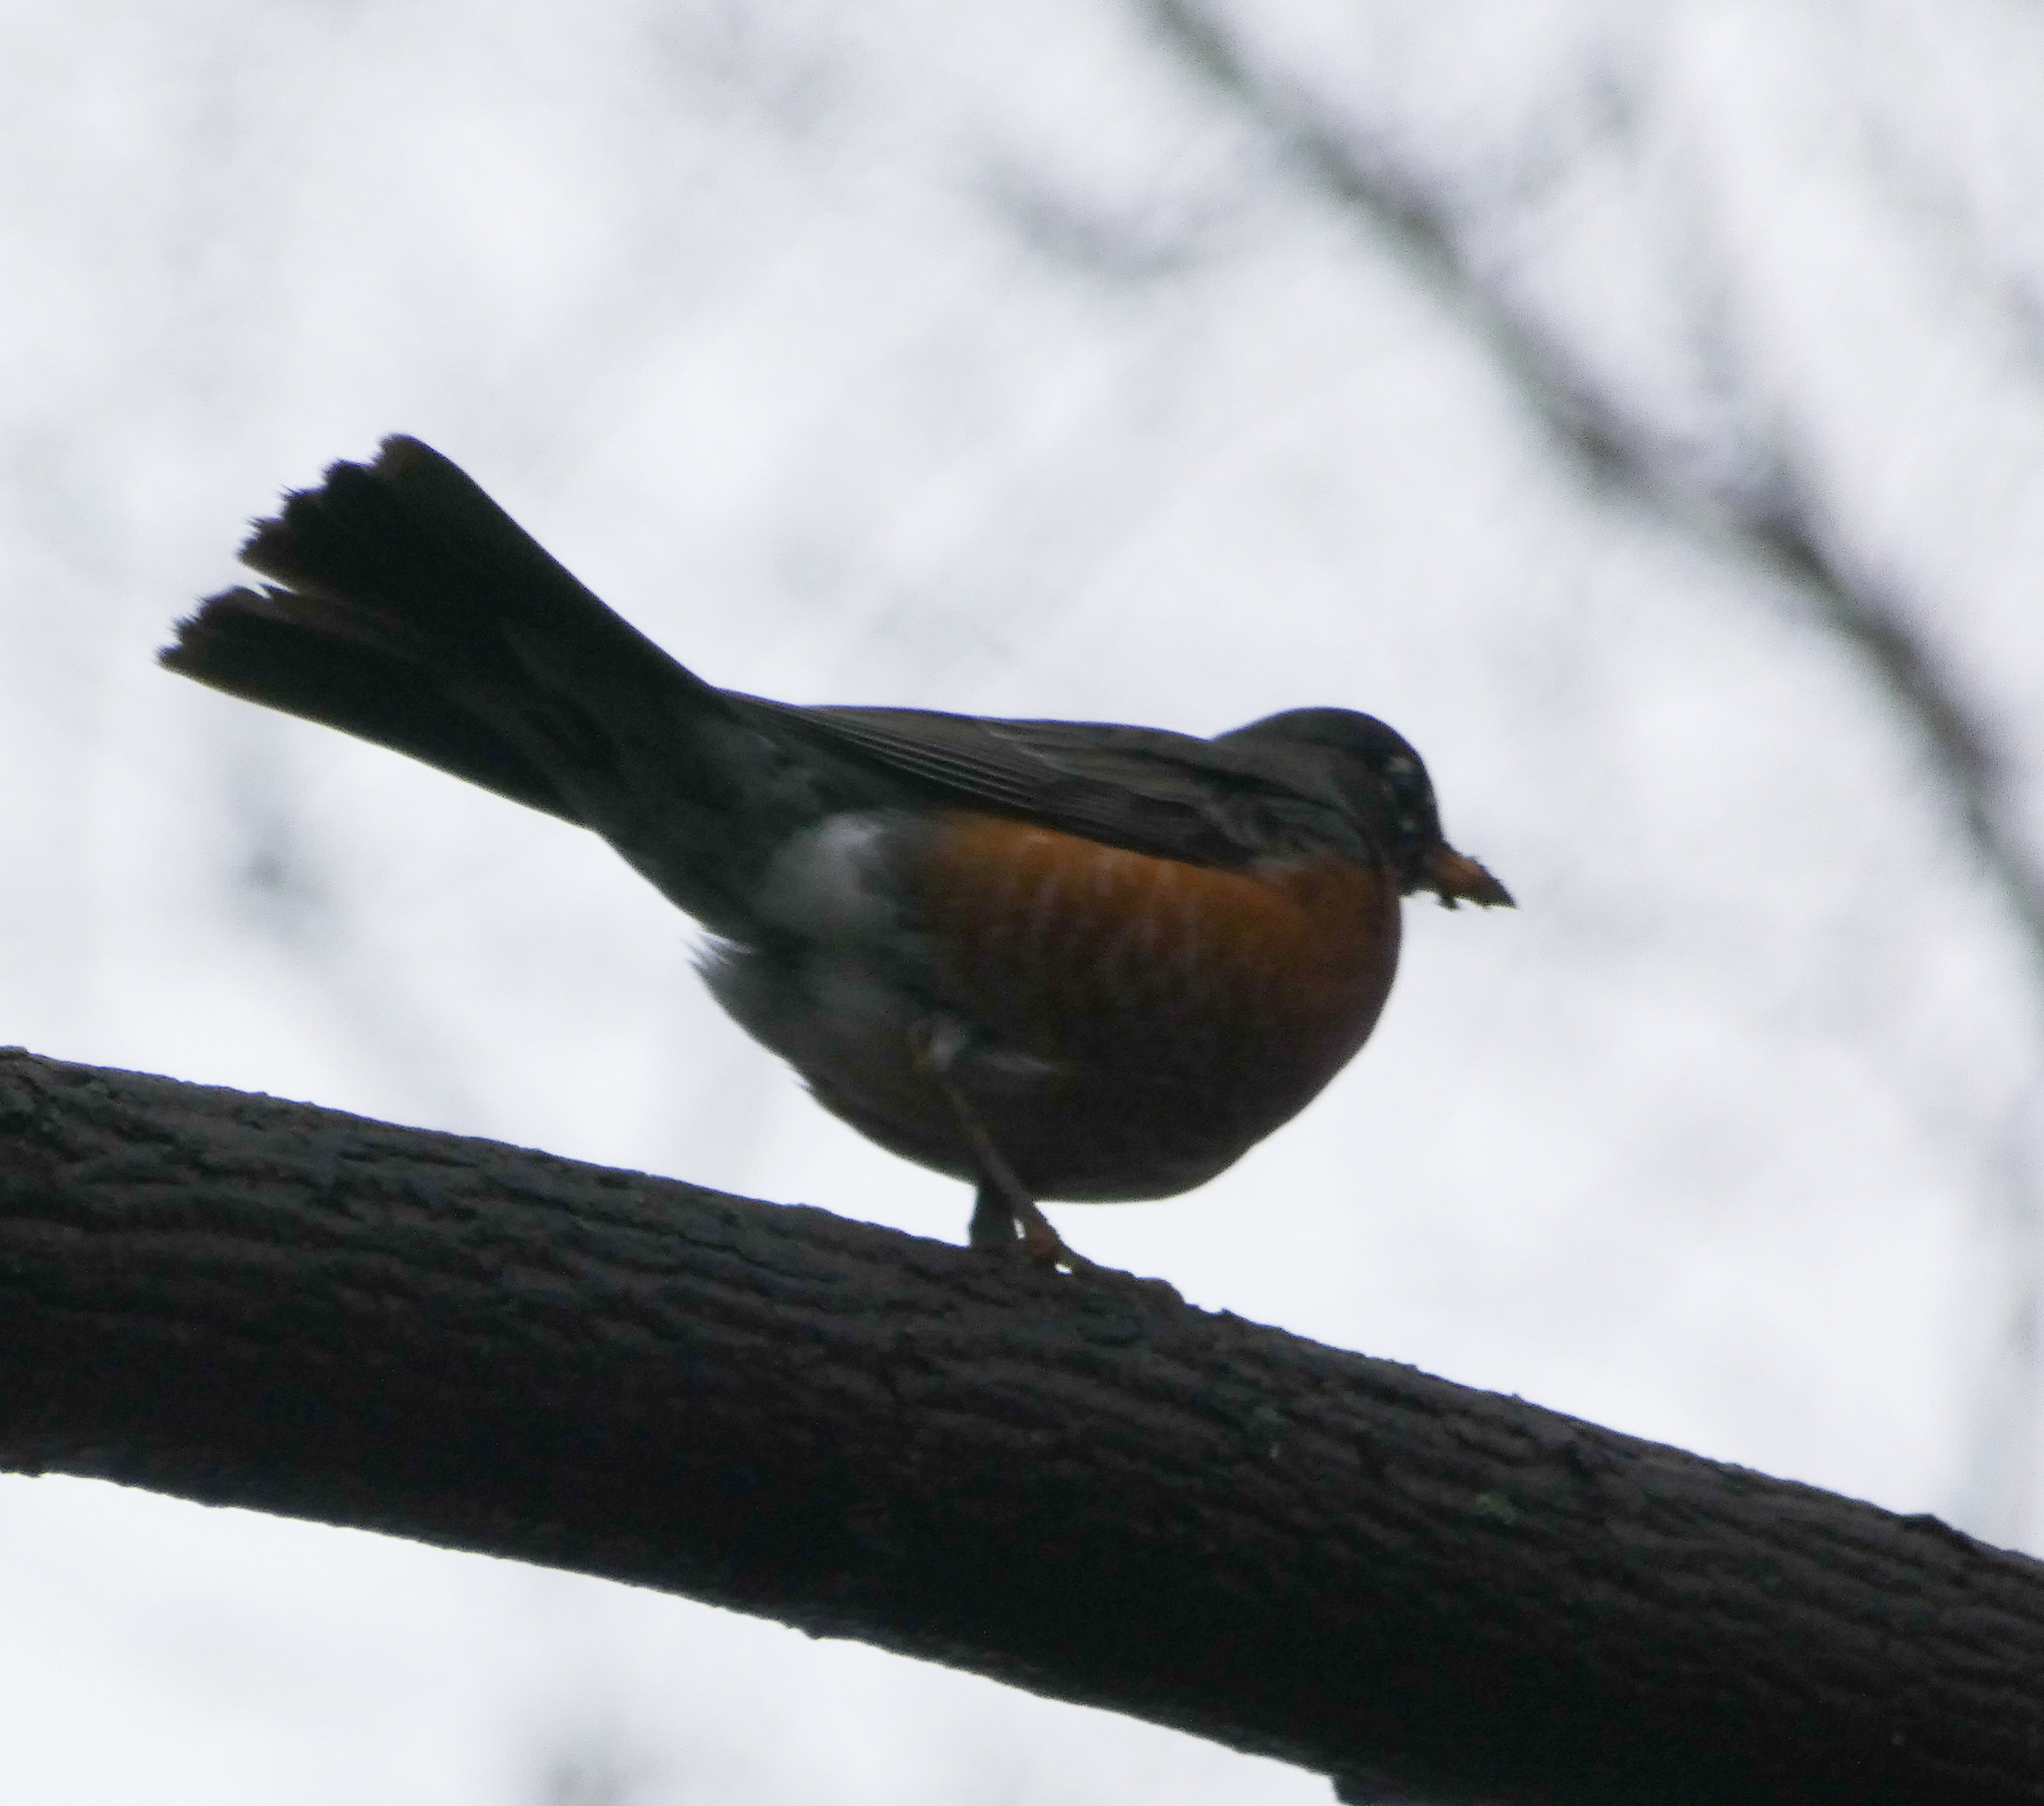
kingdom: Animalia
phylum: Chordata
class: Aves
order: Passeriformes
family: Turdidae
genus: Turdus
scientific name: Turdus migratorius
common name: American robin
